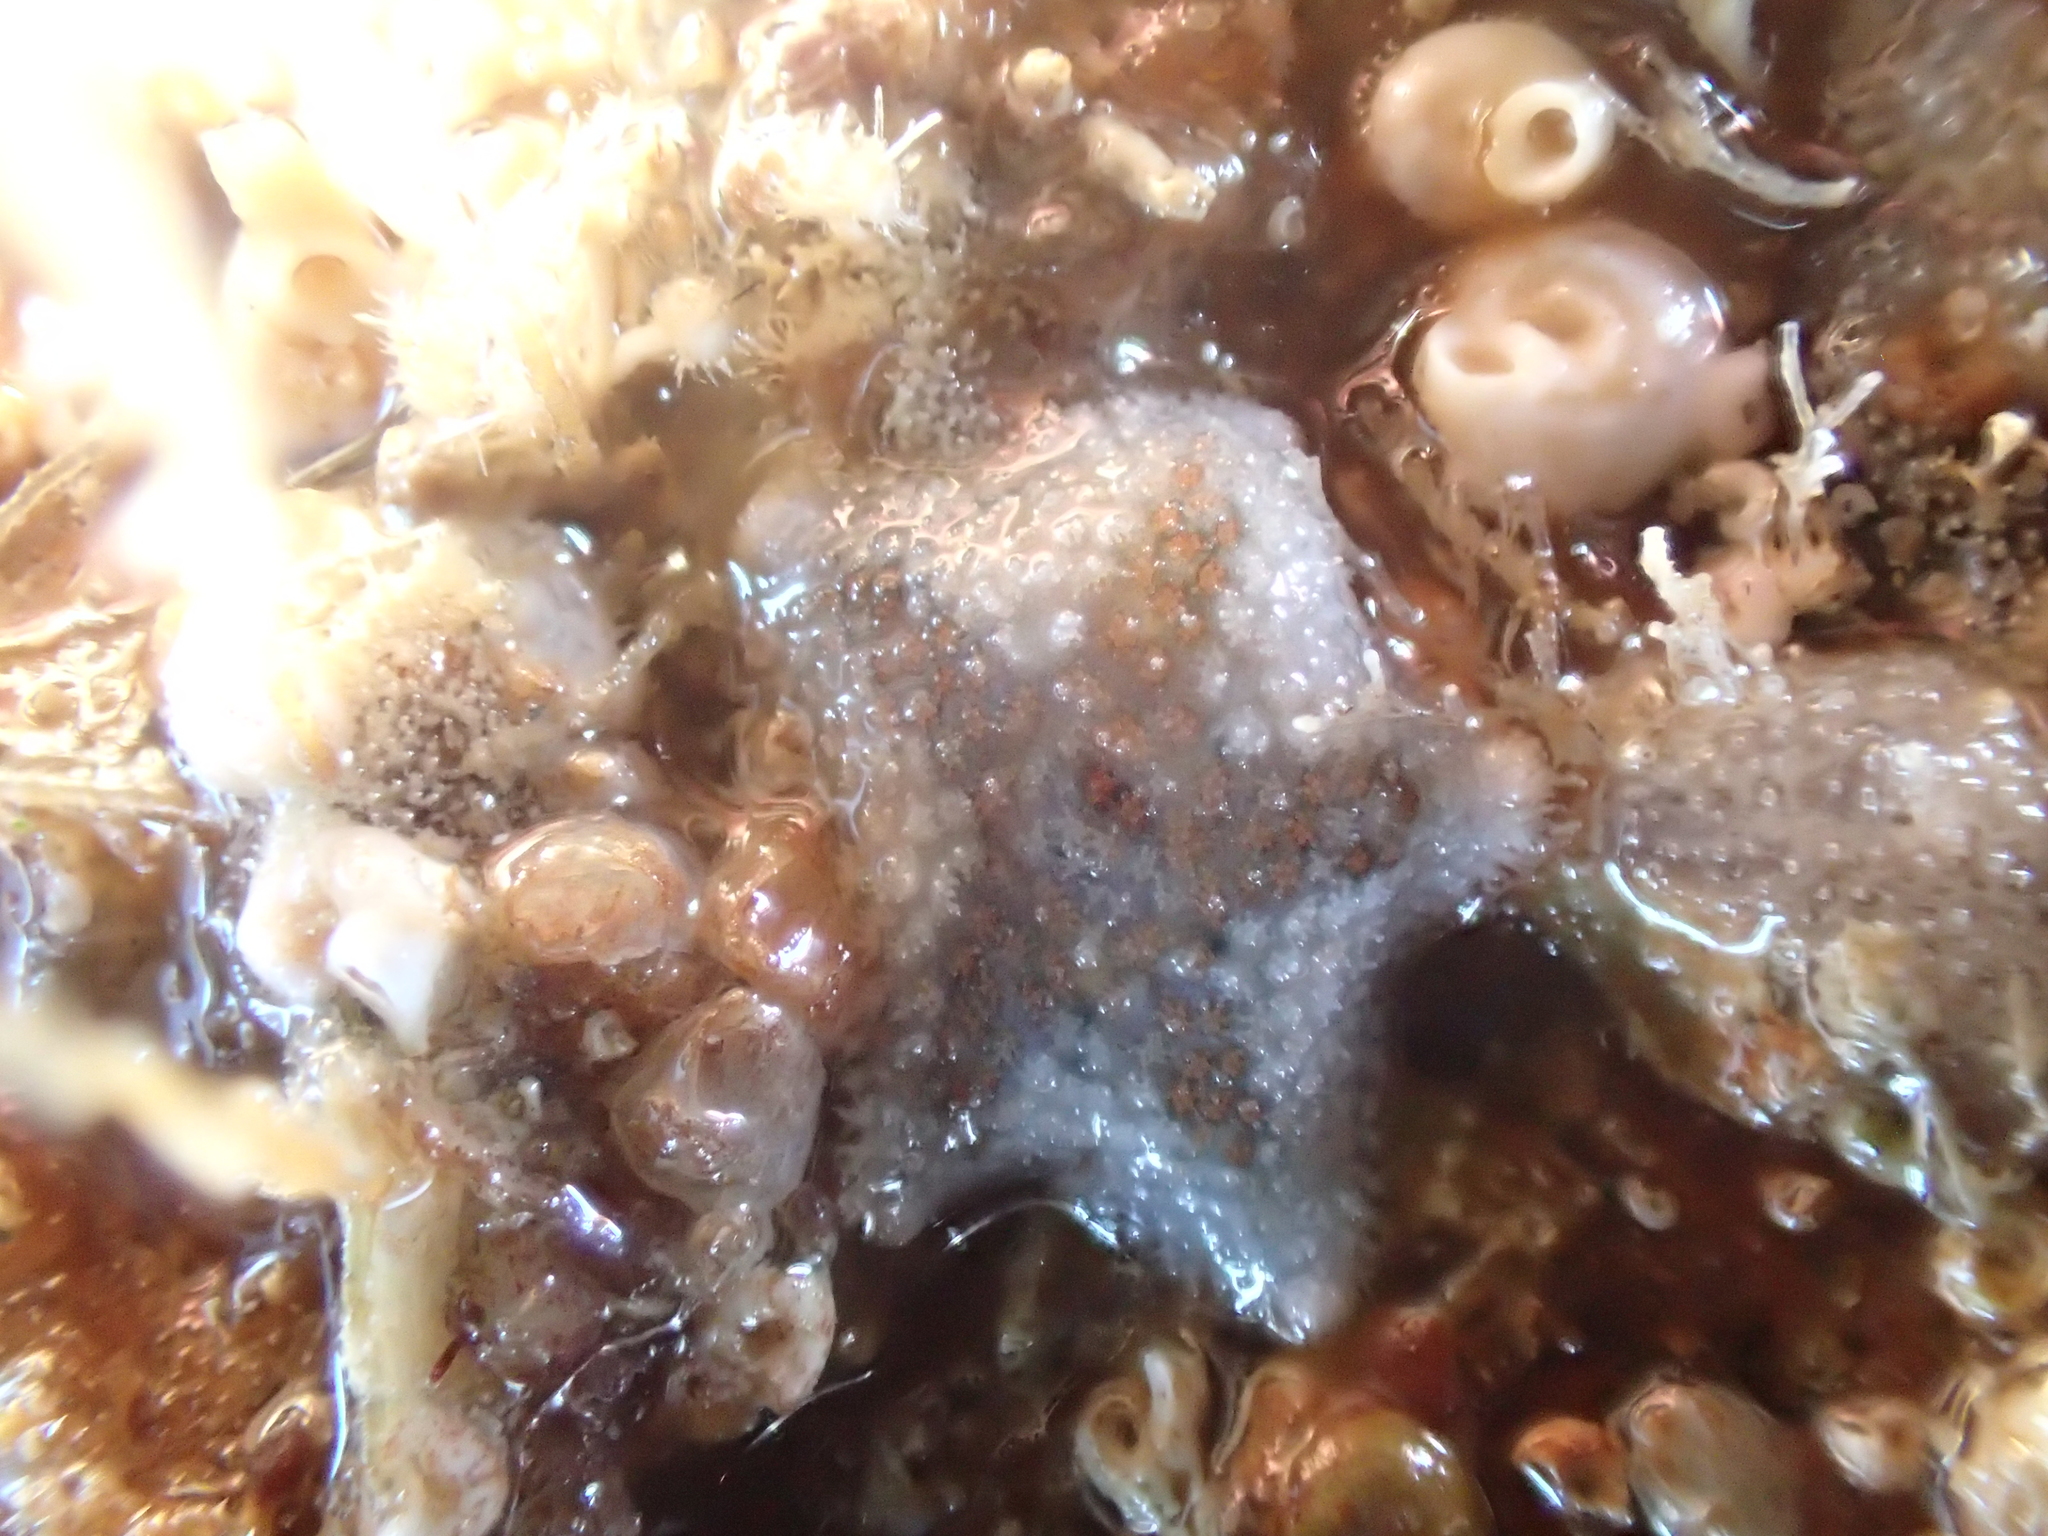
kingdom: Animalia
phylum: Echinodermata
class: Asteroidea
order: Valvatida
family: Asterinidae
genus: Asterina
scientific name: Asterina phylactica
